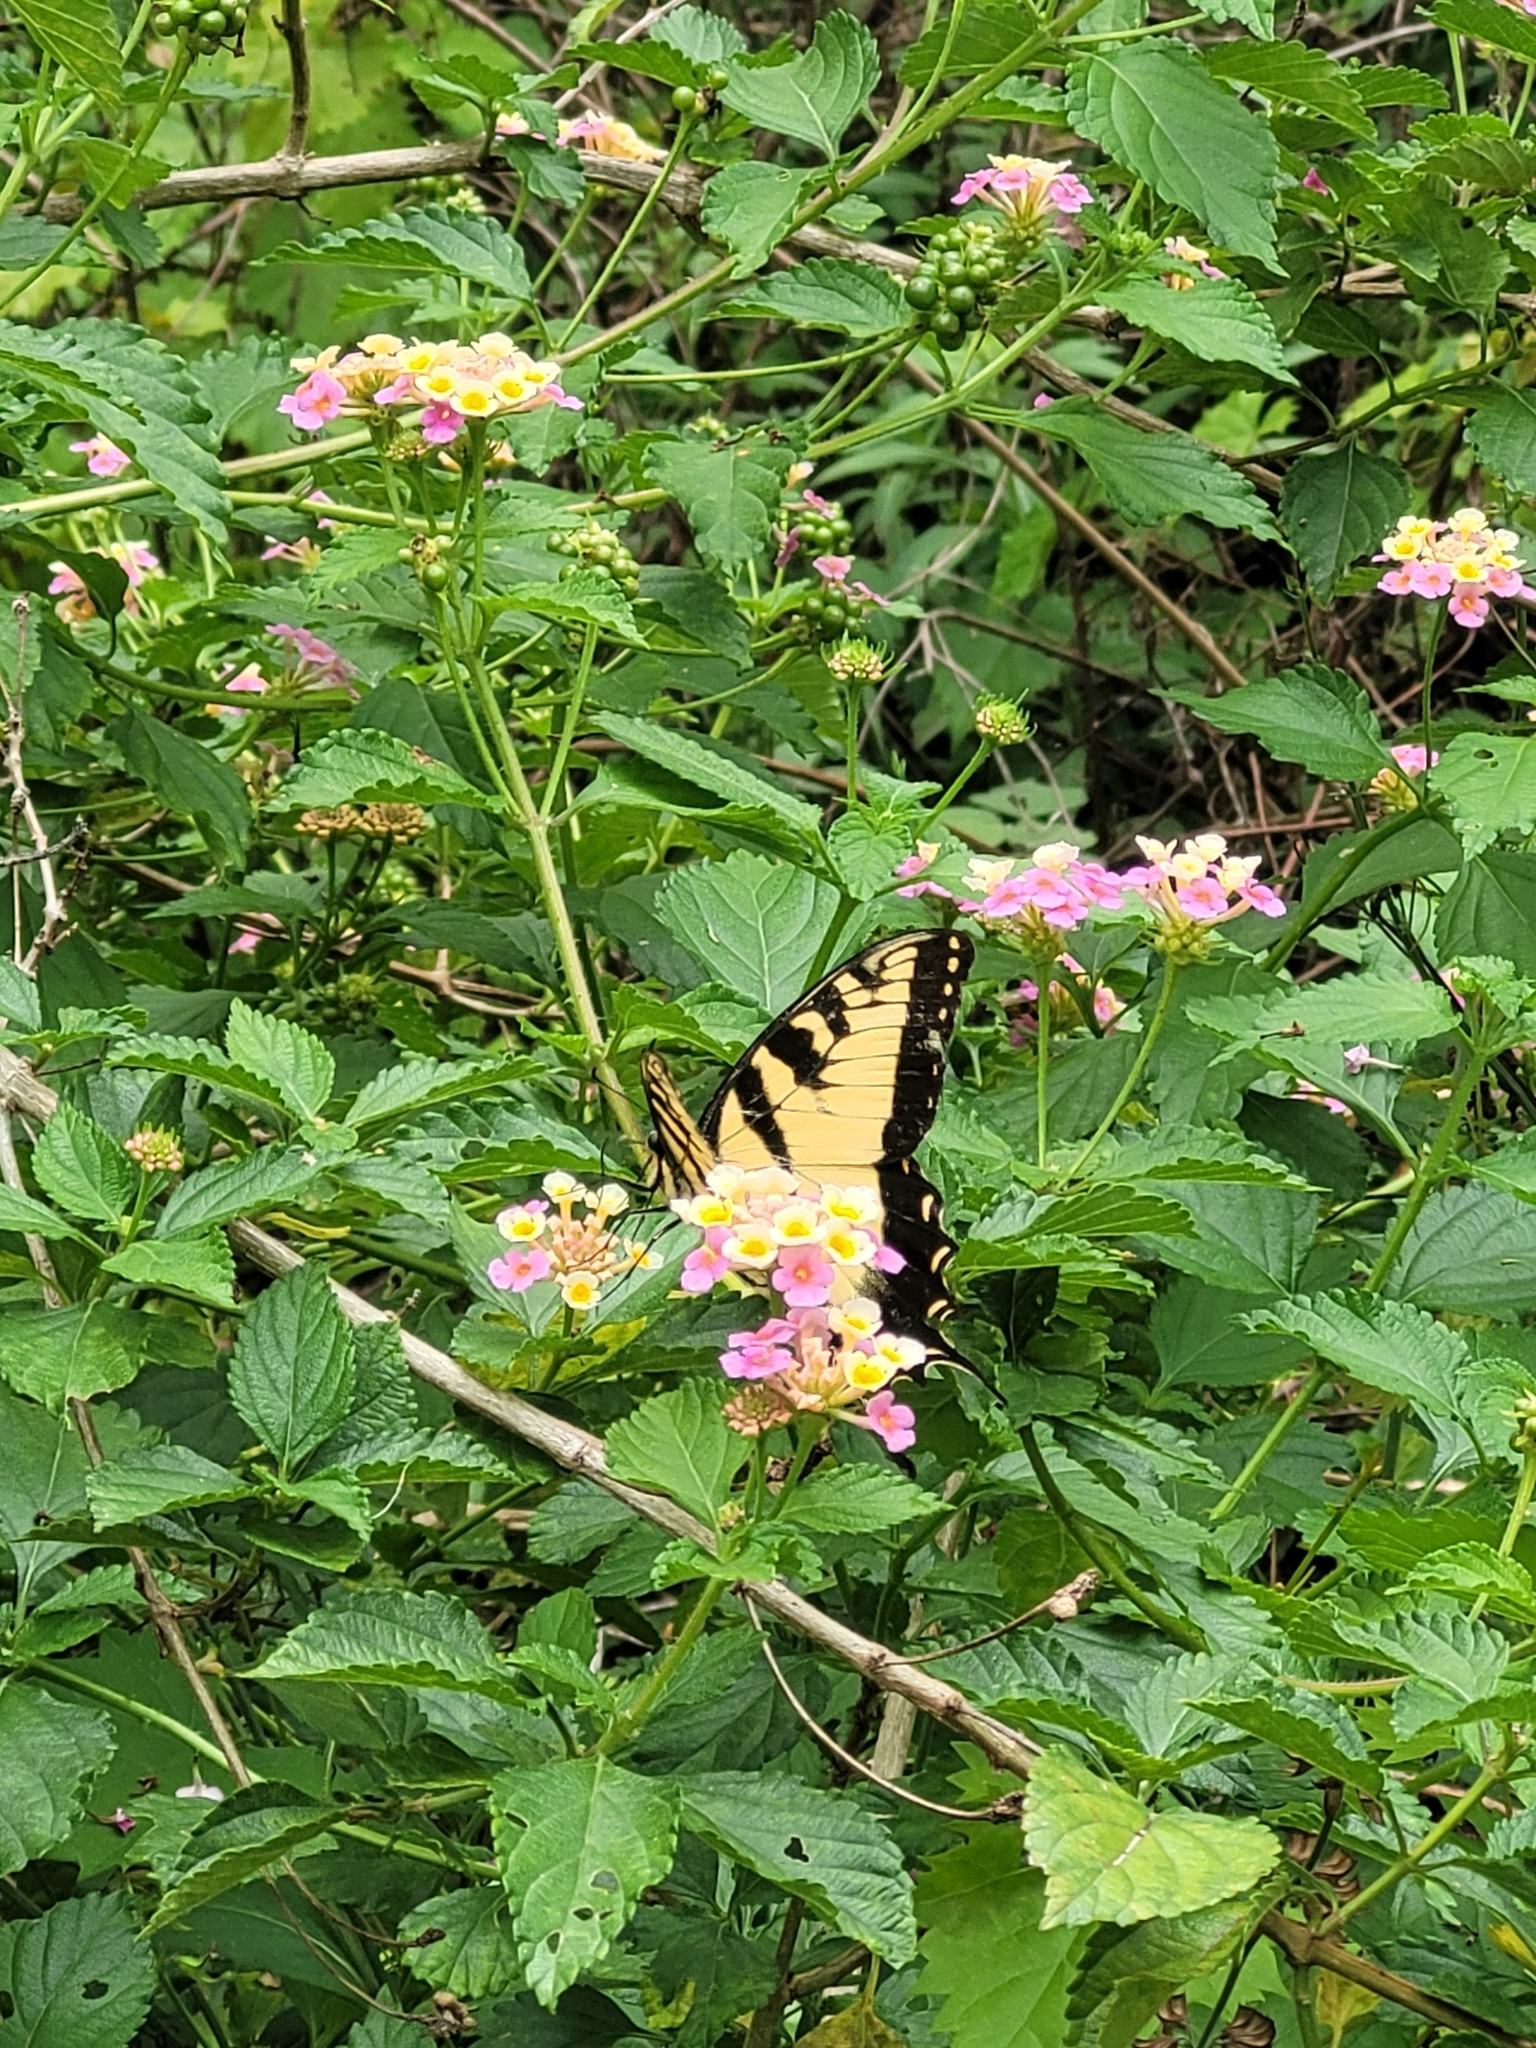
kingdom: Animalia
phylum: Arthropoda
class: Insecta
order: Lepidoptera
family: Papilionidae
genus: Papilio
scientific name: Papilio glaucus
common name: Tiger swallowtail
